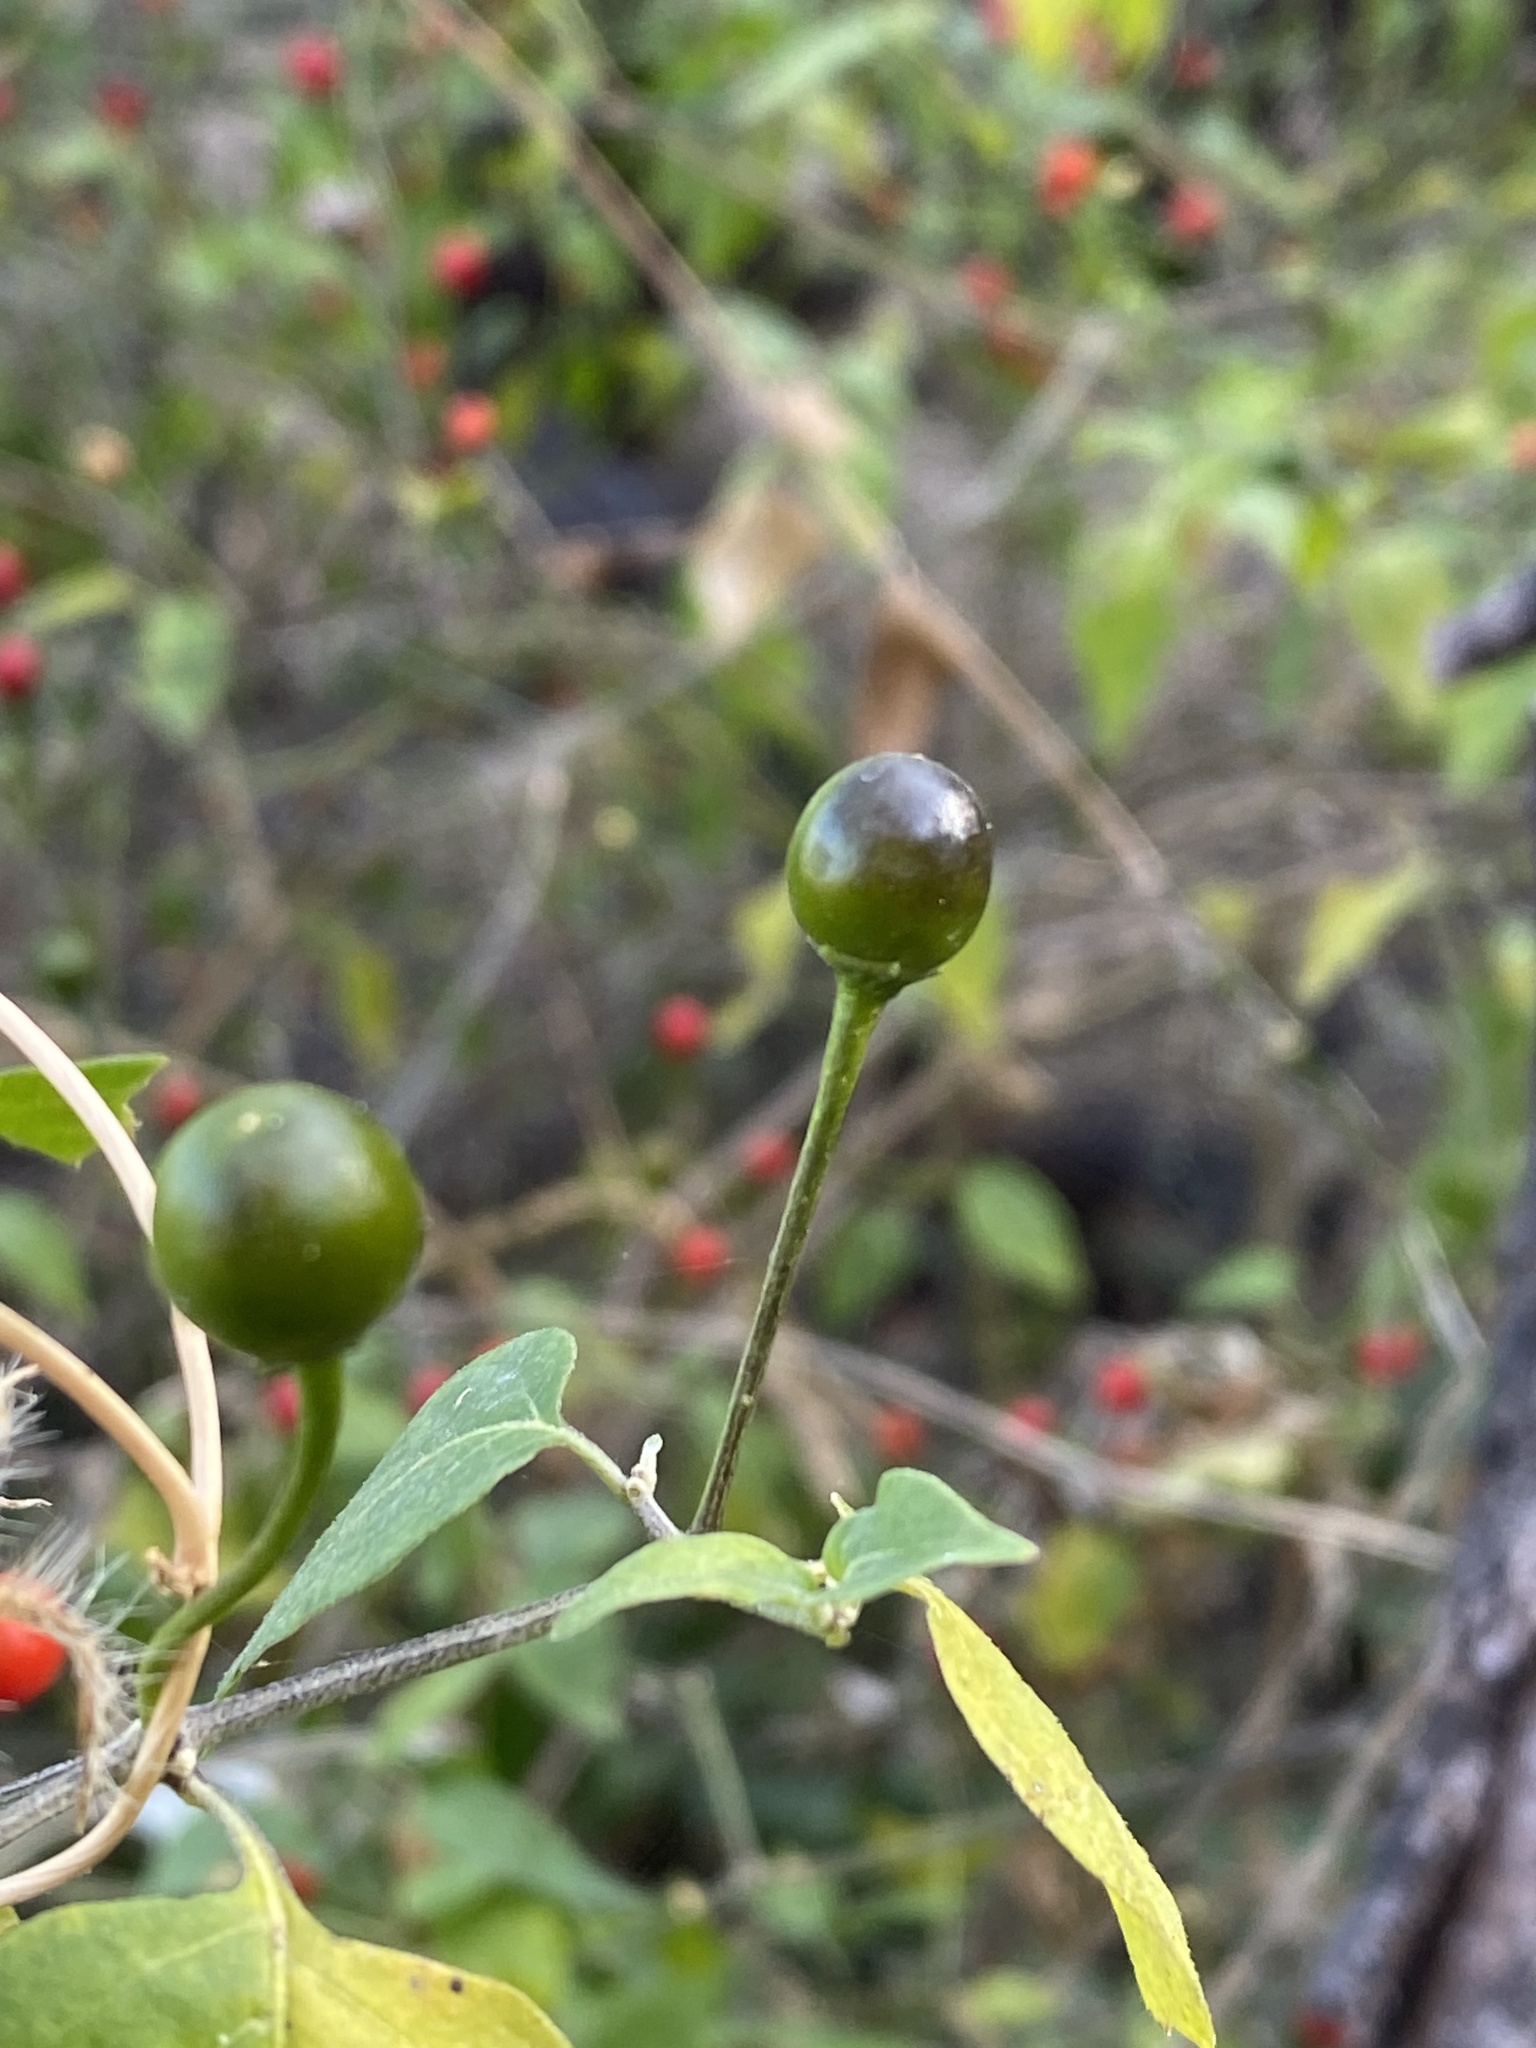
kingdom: Plantae
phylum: Tracheophyta
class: Magnoliopsida
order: Solanales
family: Solanaceae
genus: Capsicum
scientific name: Capsicum annuum
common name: Sweet pepper
